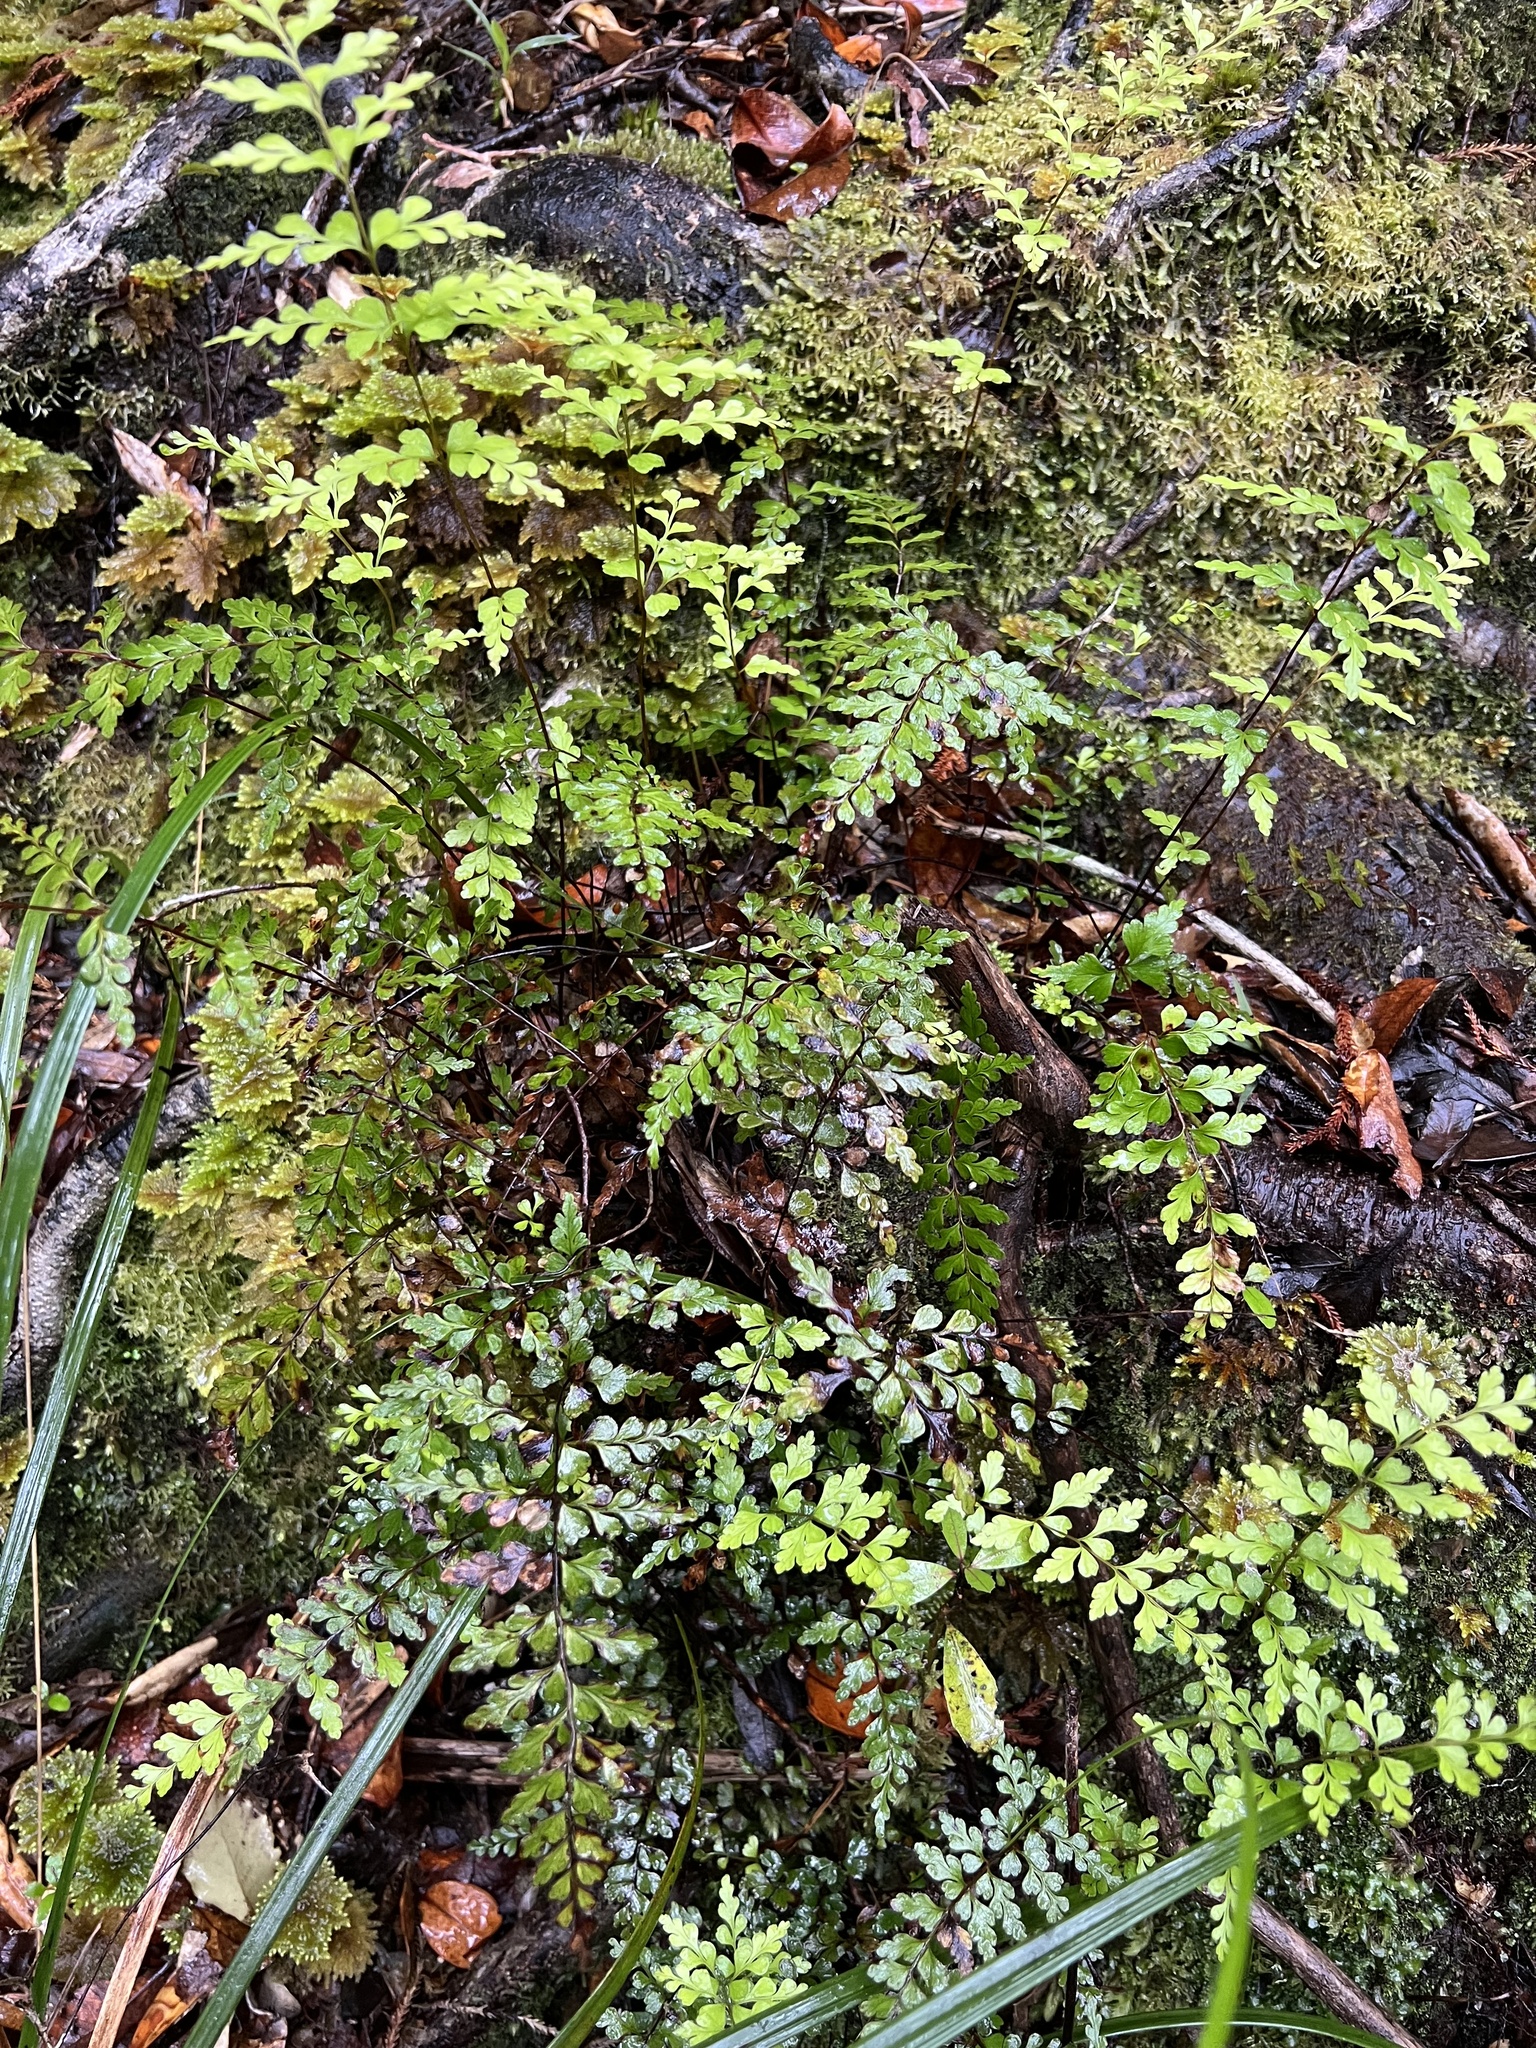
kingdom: Plantae
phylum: Tracheophyta
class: Polypodiopsida
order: Polypodiales
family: Lindsaeaceae
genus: Lindsaea
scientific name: Lindsaea trichomanoides
